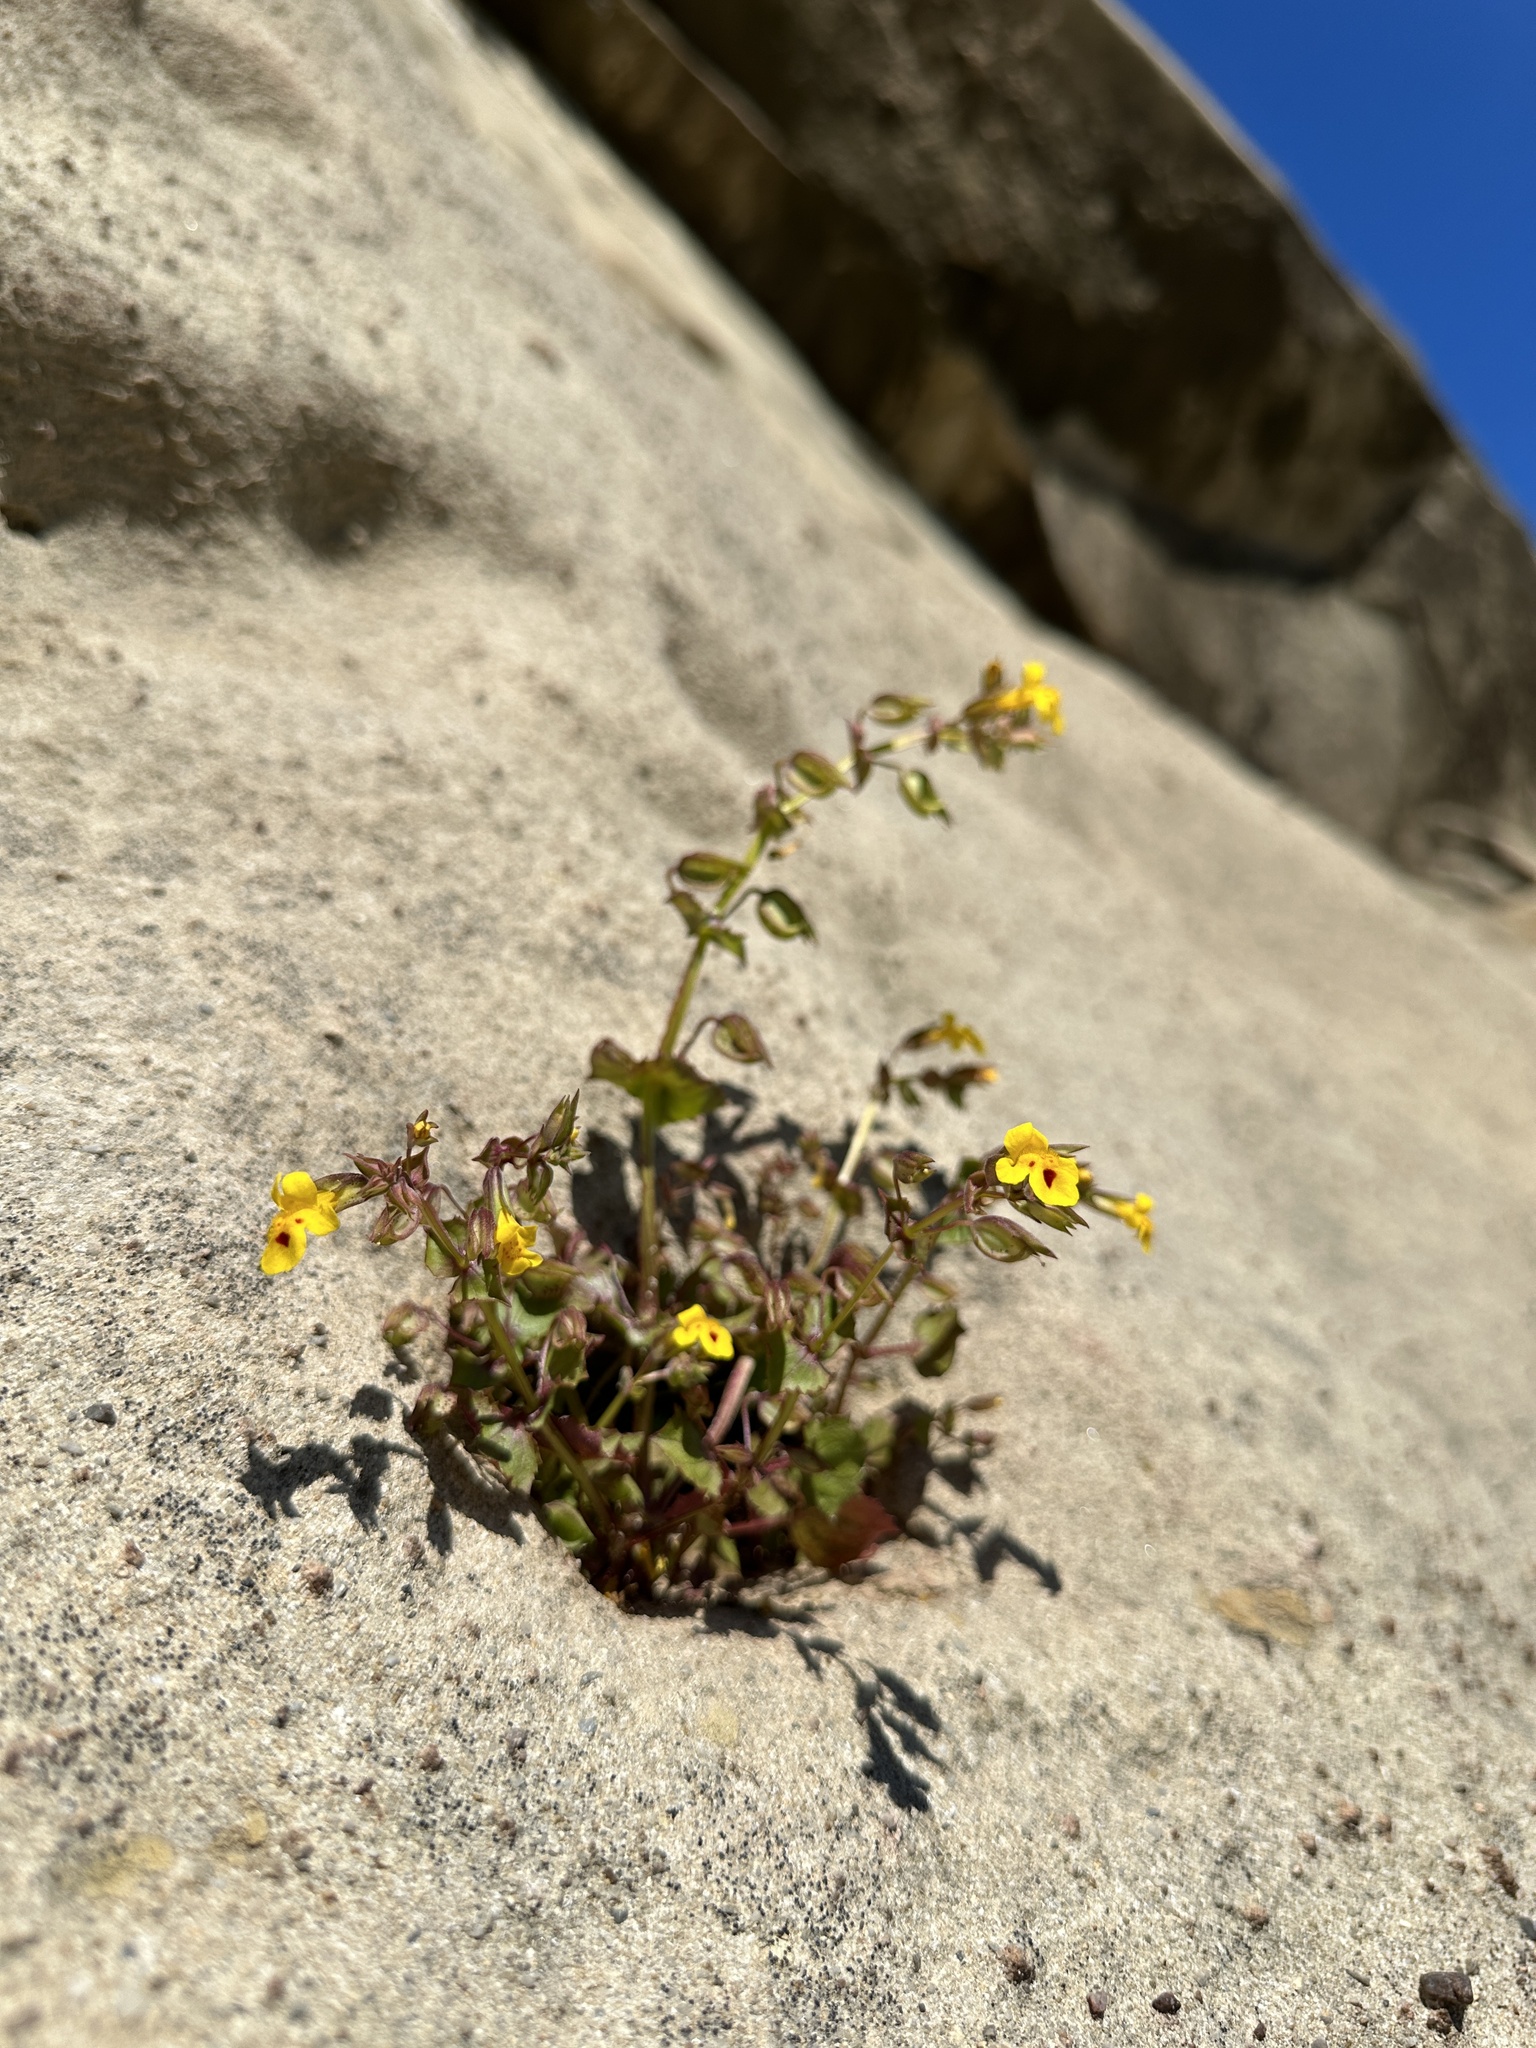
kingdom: Plantae
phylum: Tracheophyta
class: Magnoliopsida
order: Lamiales
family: Phrymaceae
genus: Erythranthe
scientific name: Erythranthe nasuta
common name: Sooke monkeyflower
